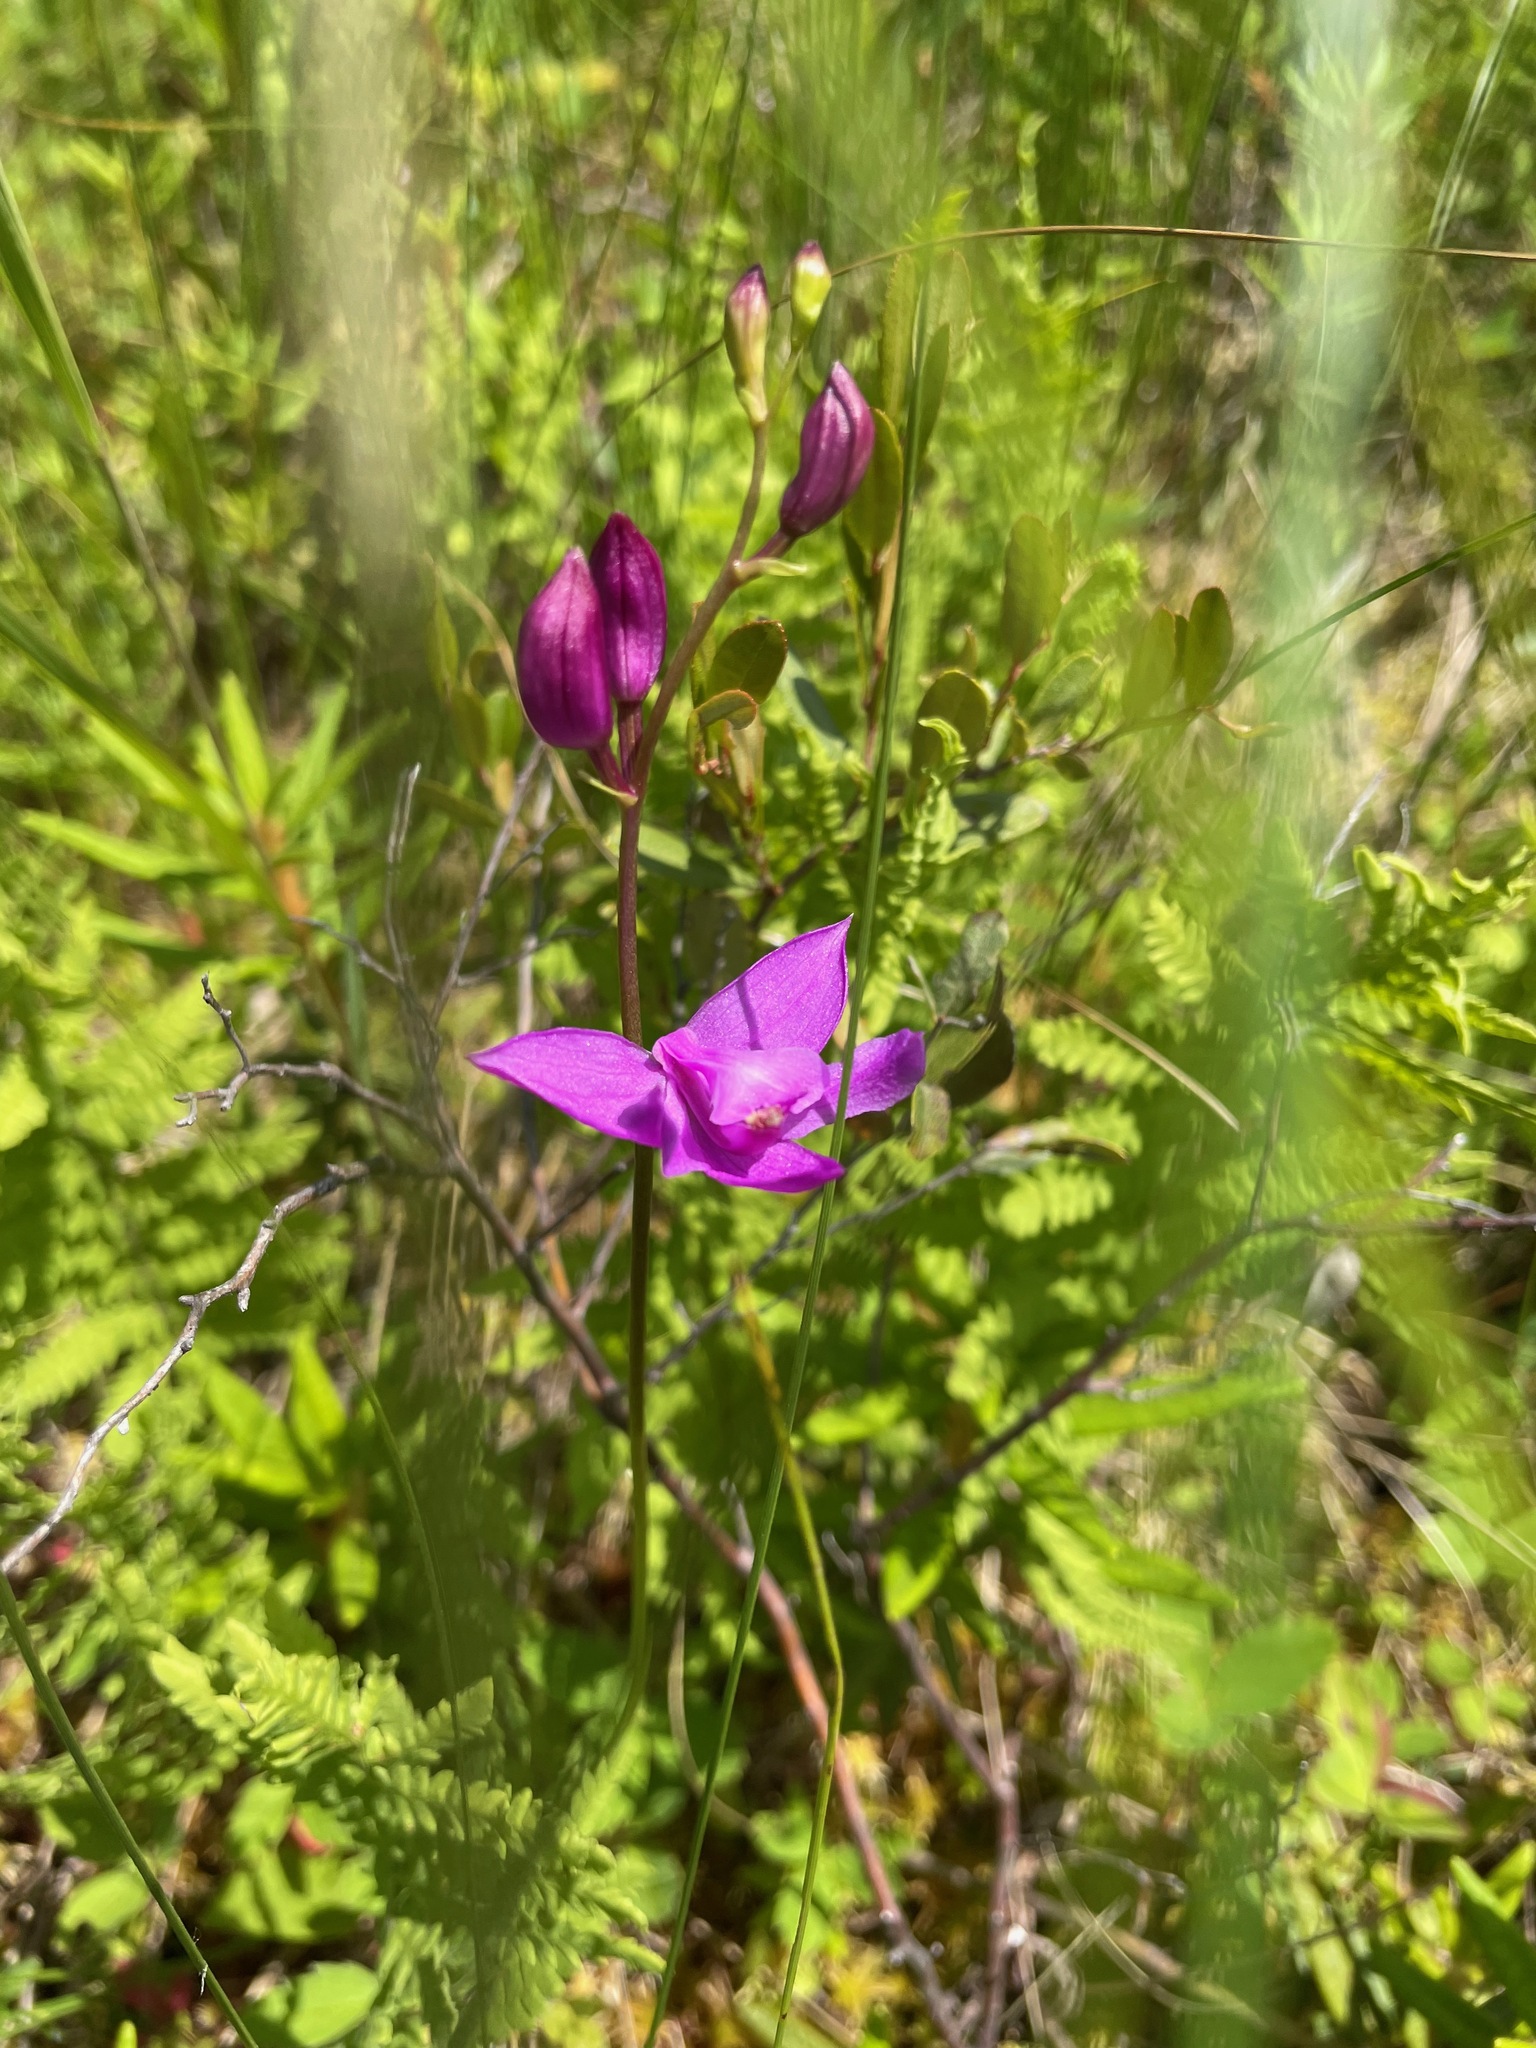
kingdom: Plantae
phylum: Tracheophyta
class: Liliopsida
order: Asparagales
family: Orchidaceae
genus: Calopogon
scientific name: Calopogon tuberosus
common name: Grass-pink
